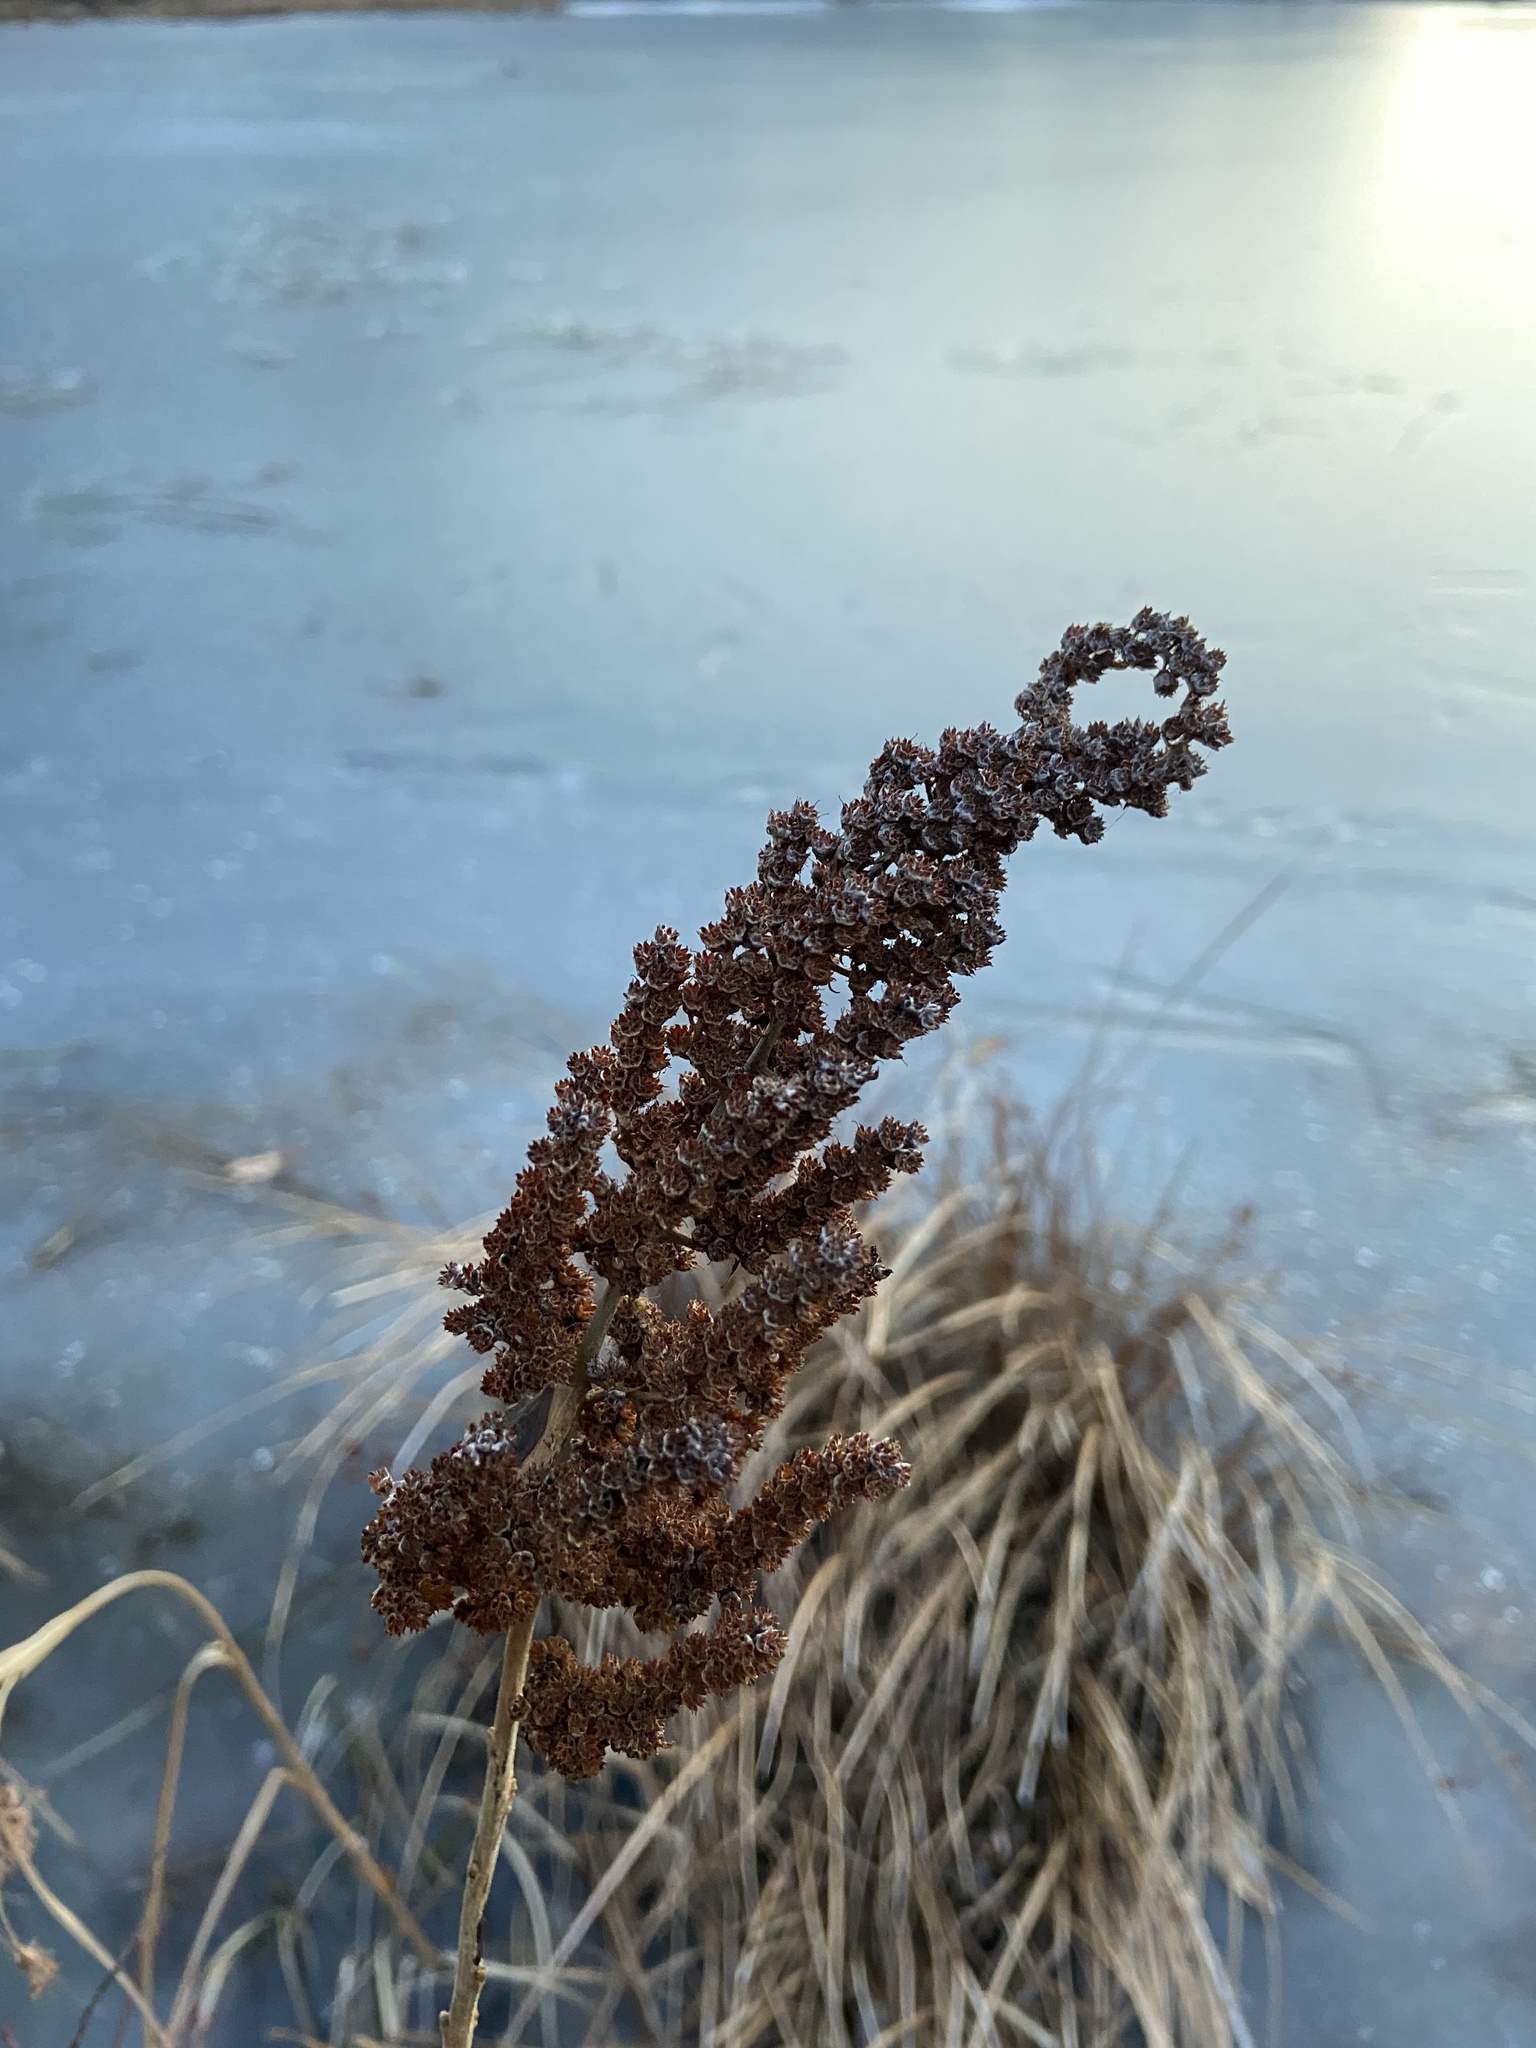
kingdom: Plantae
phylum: Tracheophyta
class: Magnoliopsida
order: Rosales
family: Rosaceae
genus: Spiraea
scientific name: Spiraea tomentosa
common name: Hardhack
